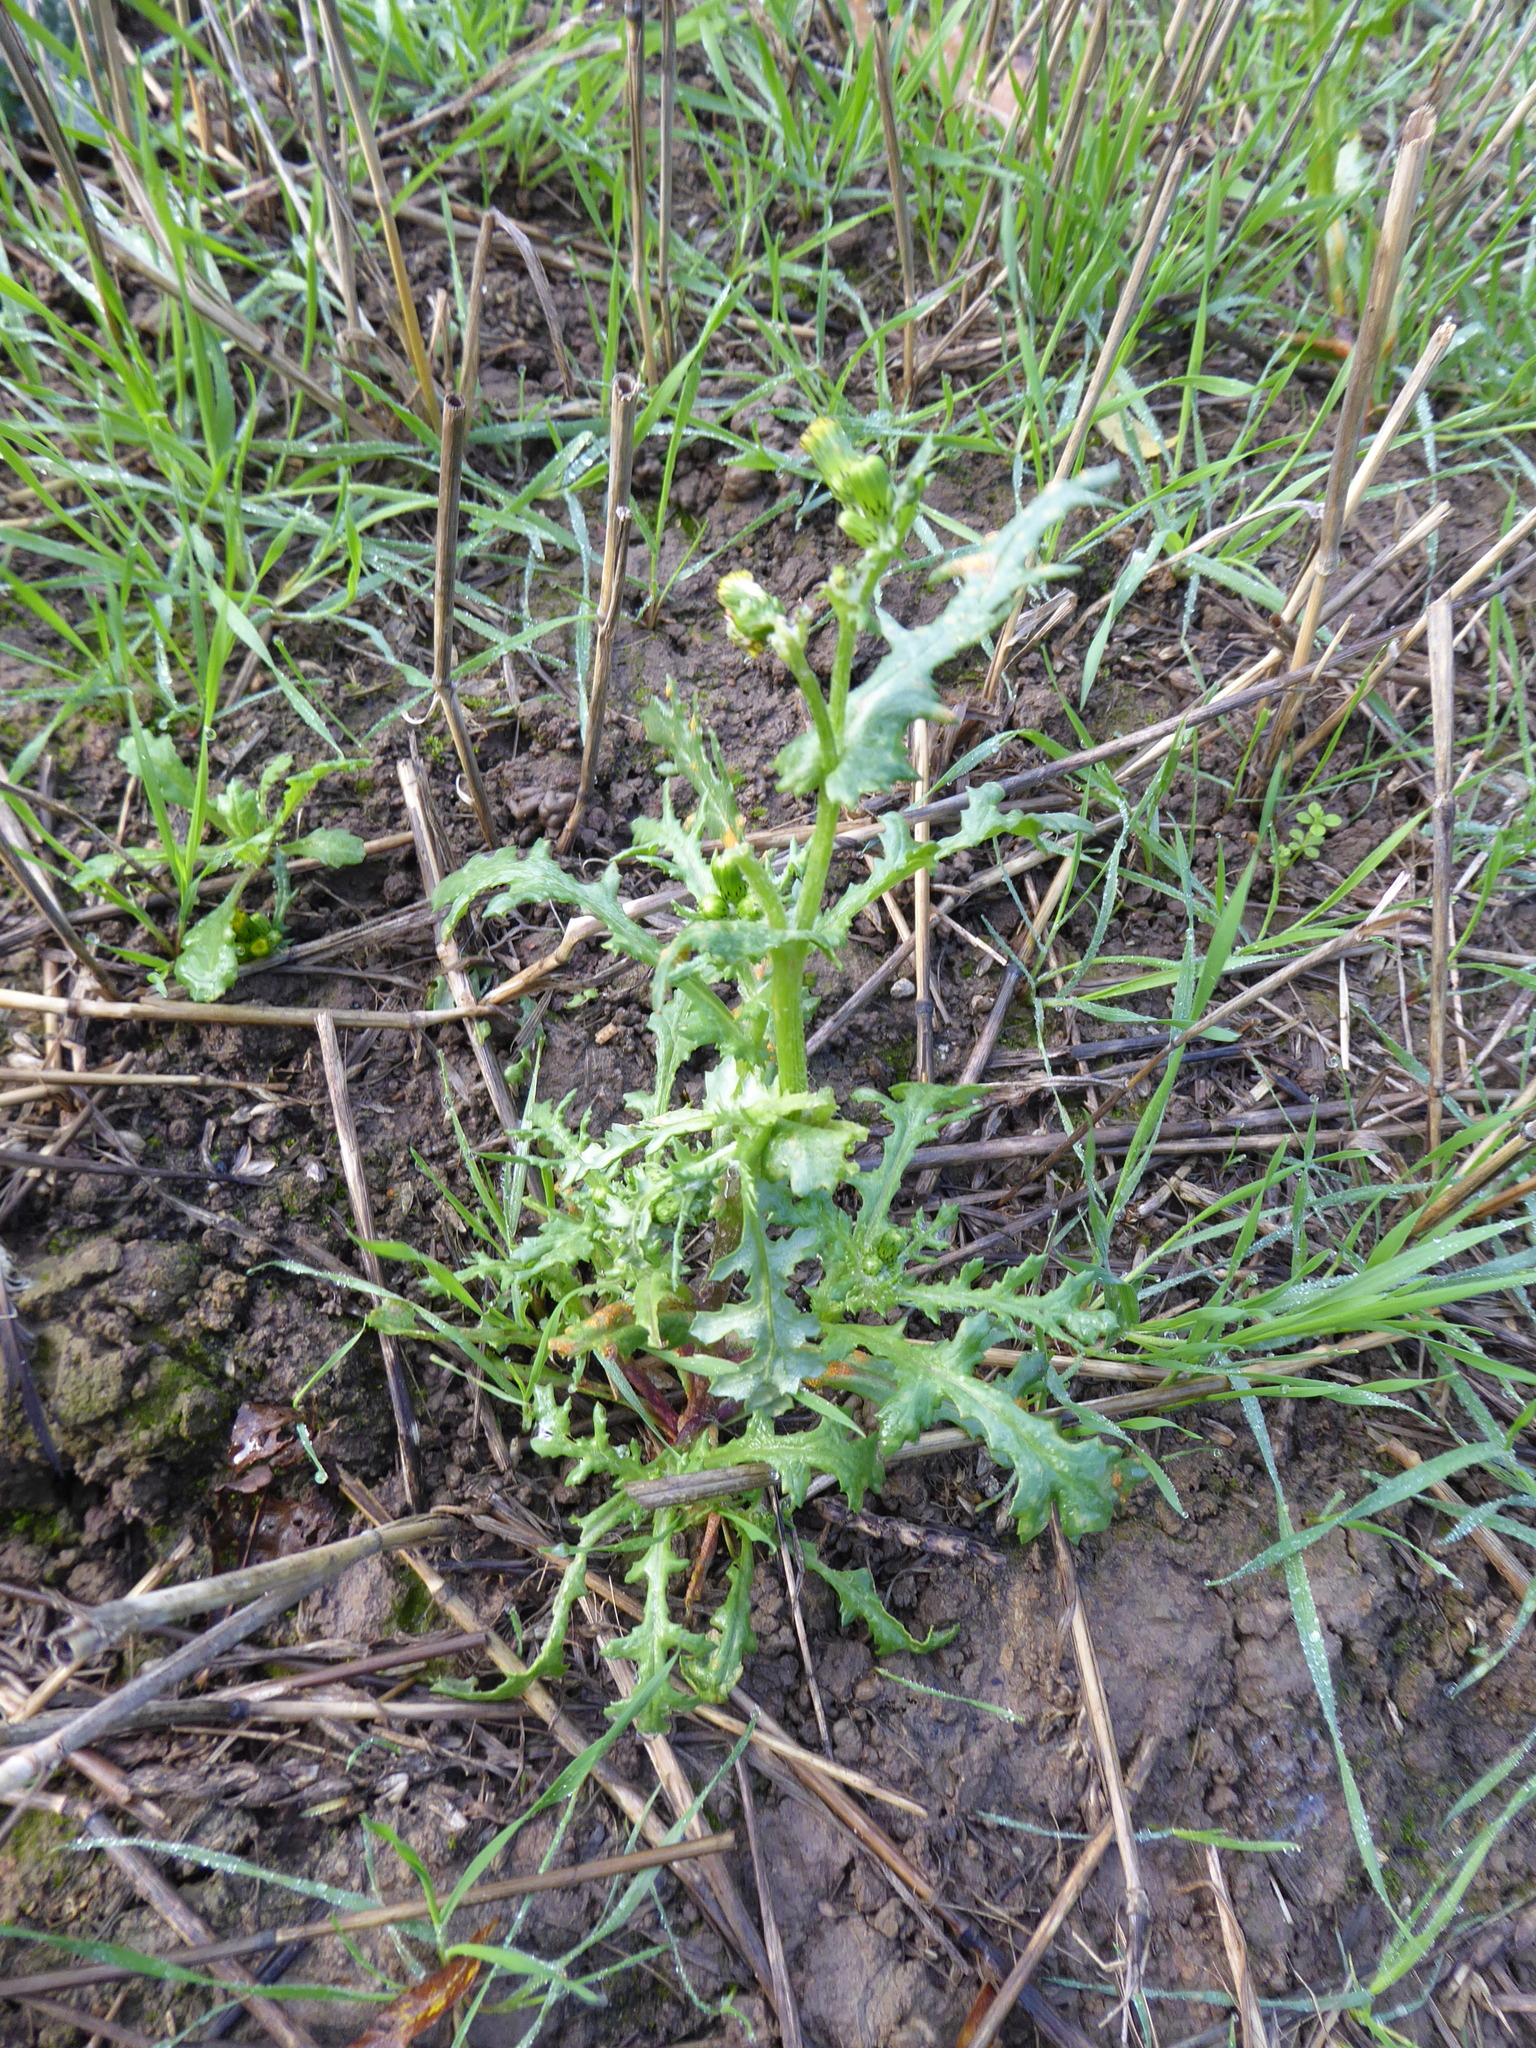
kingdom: Plantae
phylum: Tracheophyta
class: Magnoliopsida
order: Asterales
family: Asteraceae
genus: Senecio
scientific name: Senecio vulgaris
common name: Old-man-in-the-spring
